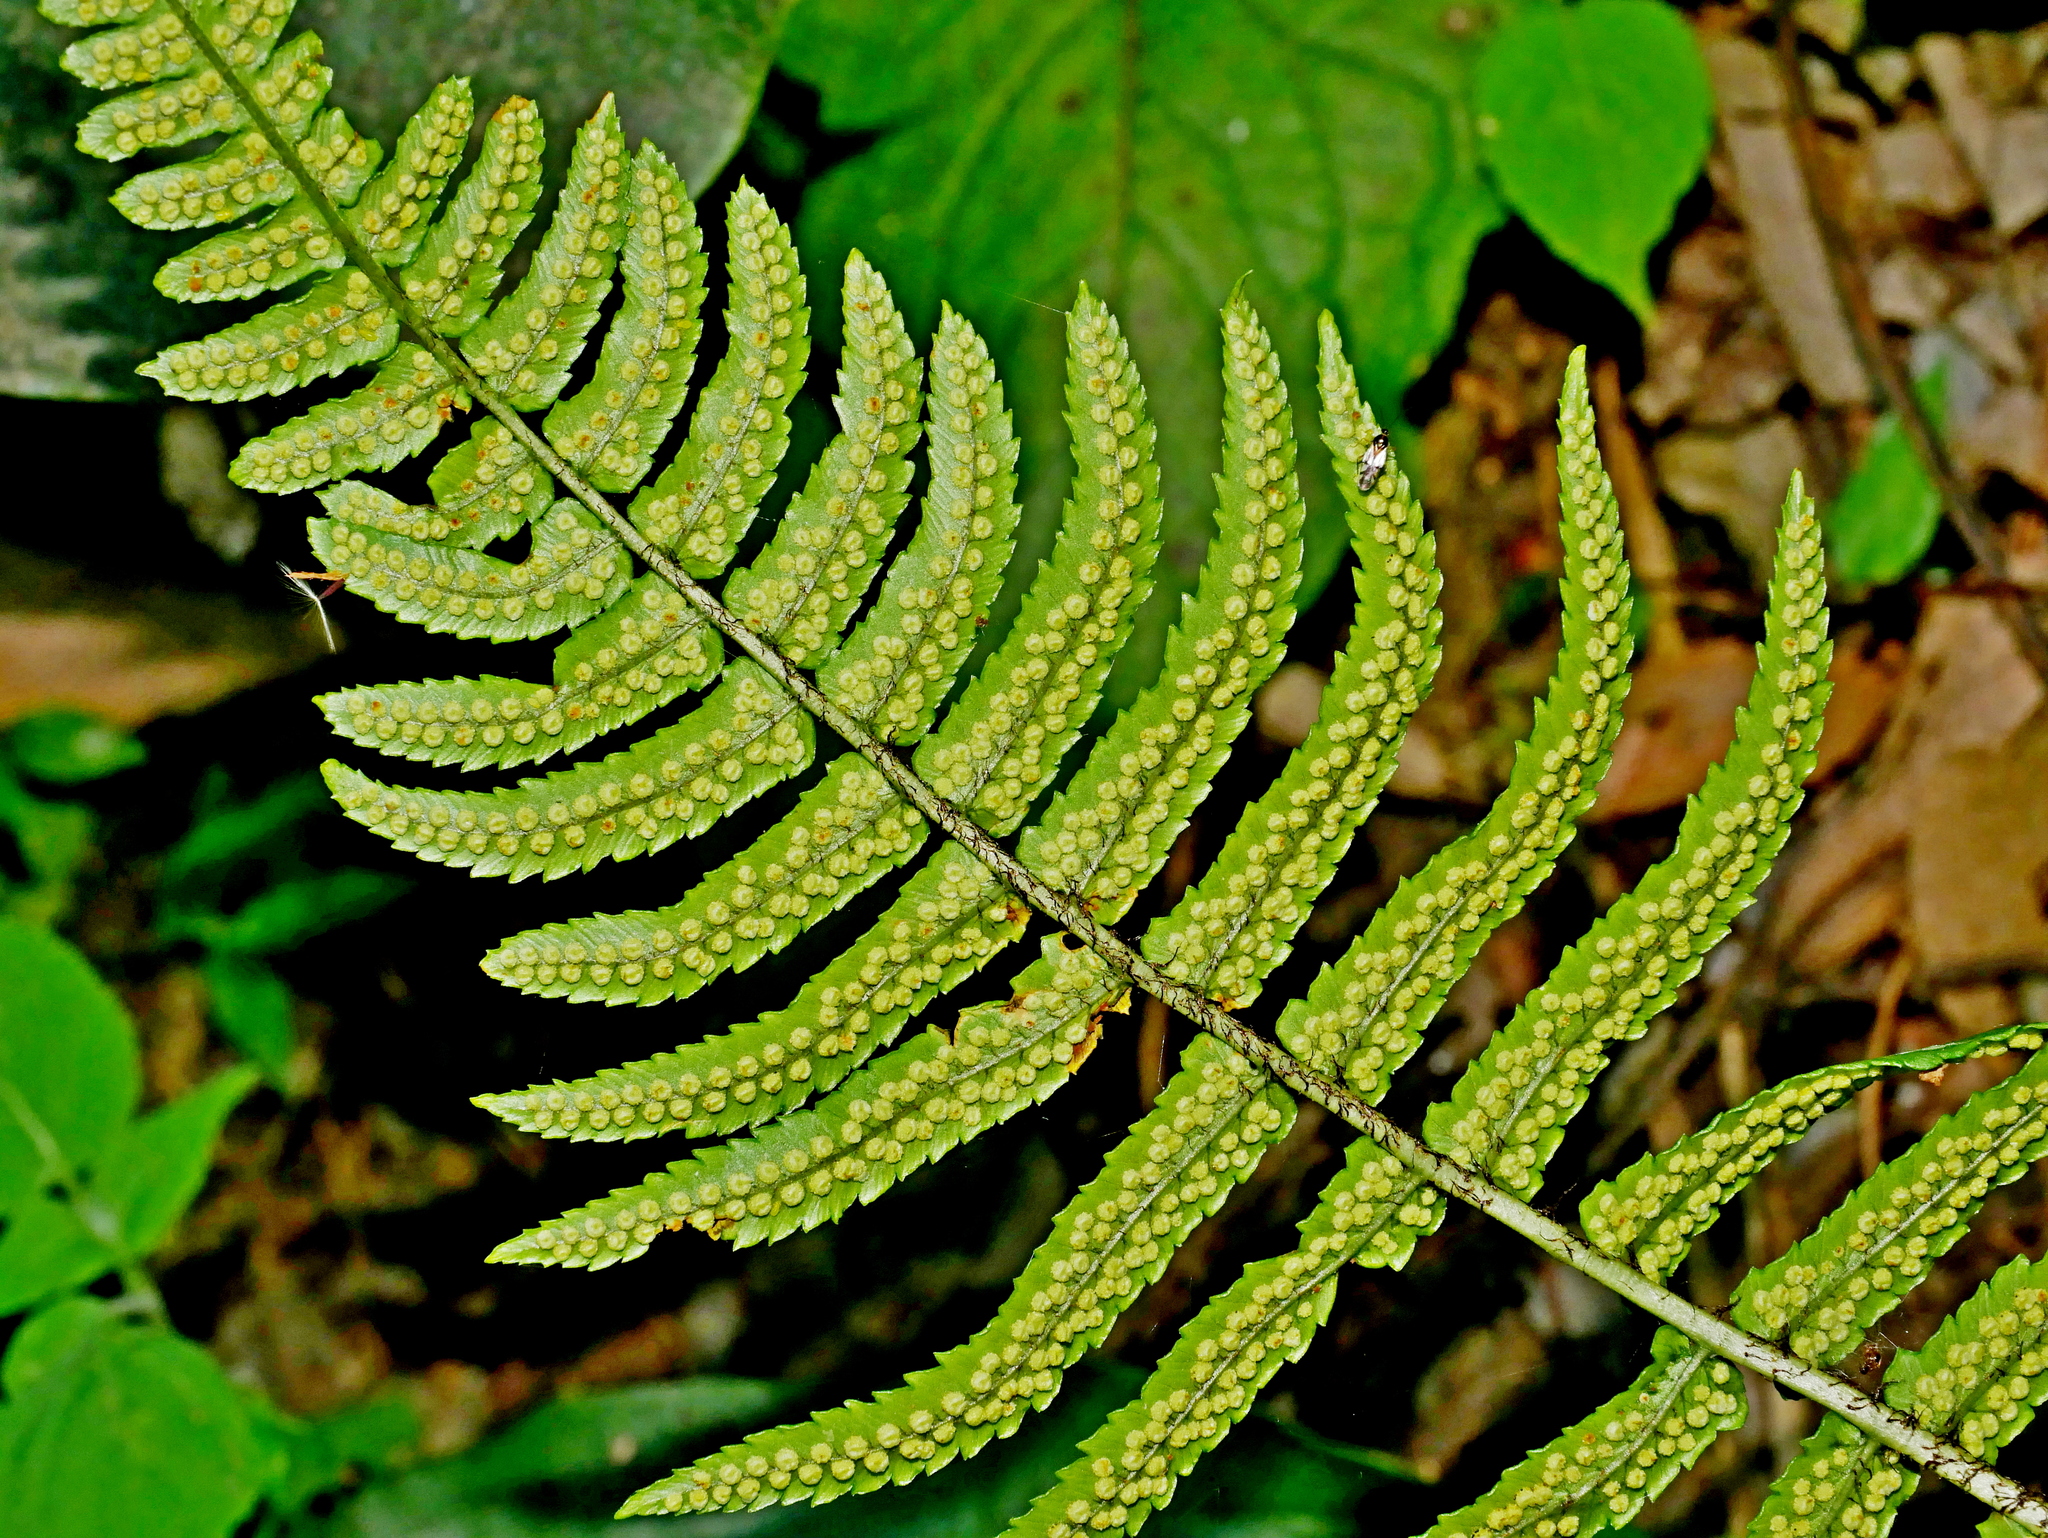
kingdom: Plantae
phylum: Tracheophyta
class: Polypodiopsida
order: Polypodiales
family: Dryopteridaceae
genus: Dryopteris
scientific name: Dryopteris cycadina
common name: Shaggy wood fern
